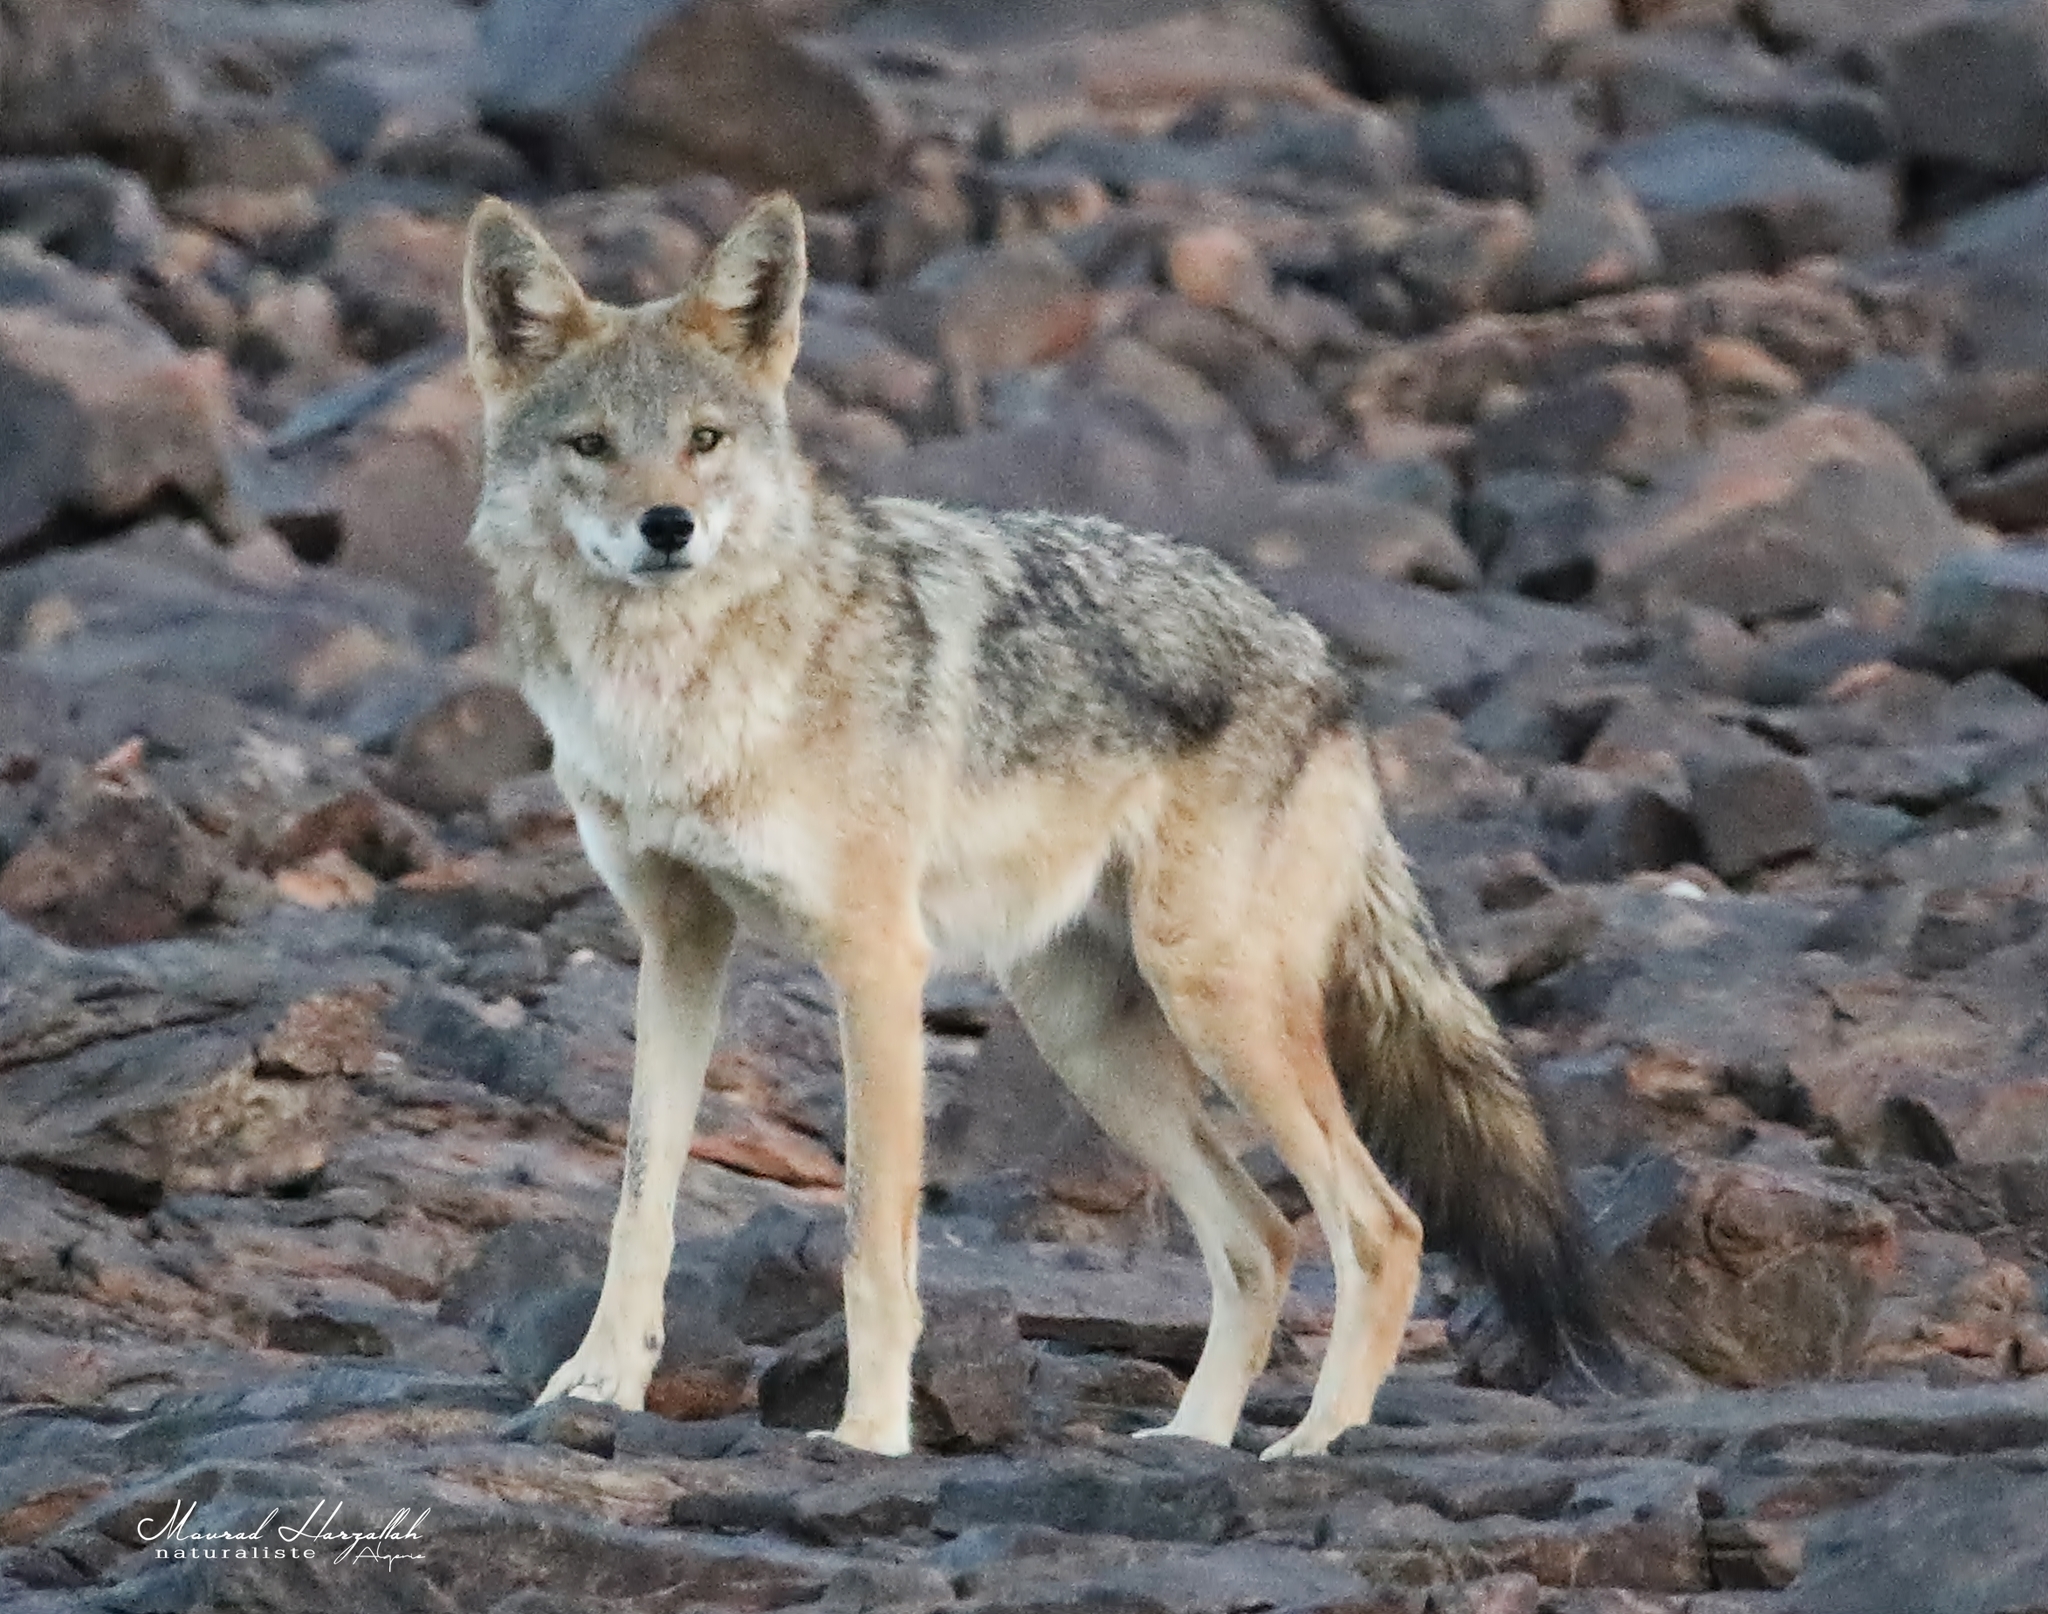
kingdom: Animalia
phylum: Chordata
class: Mammalia
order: Carnivora
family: Canidae
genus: Canis
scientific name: Canis lupaster
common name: African golden wolf
